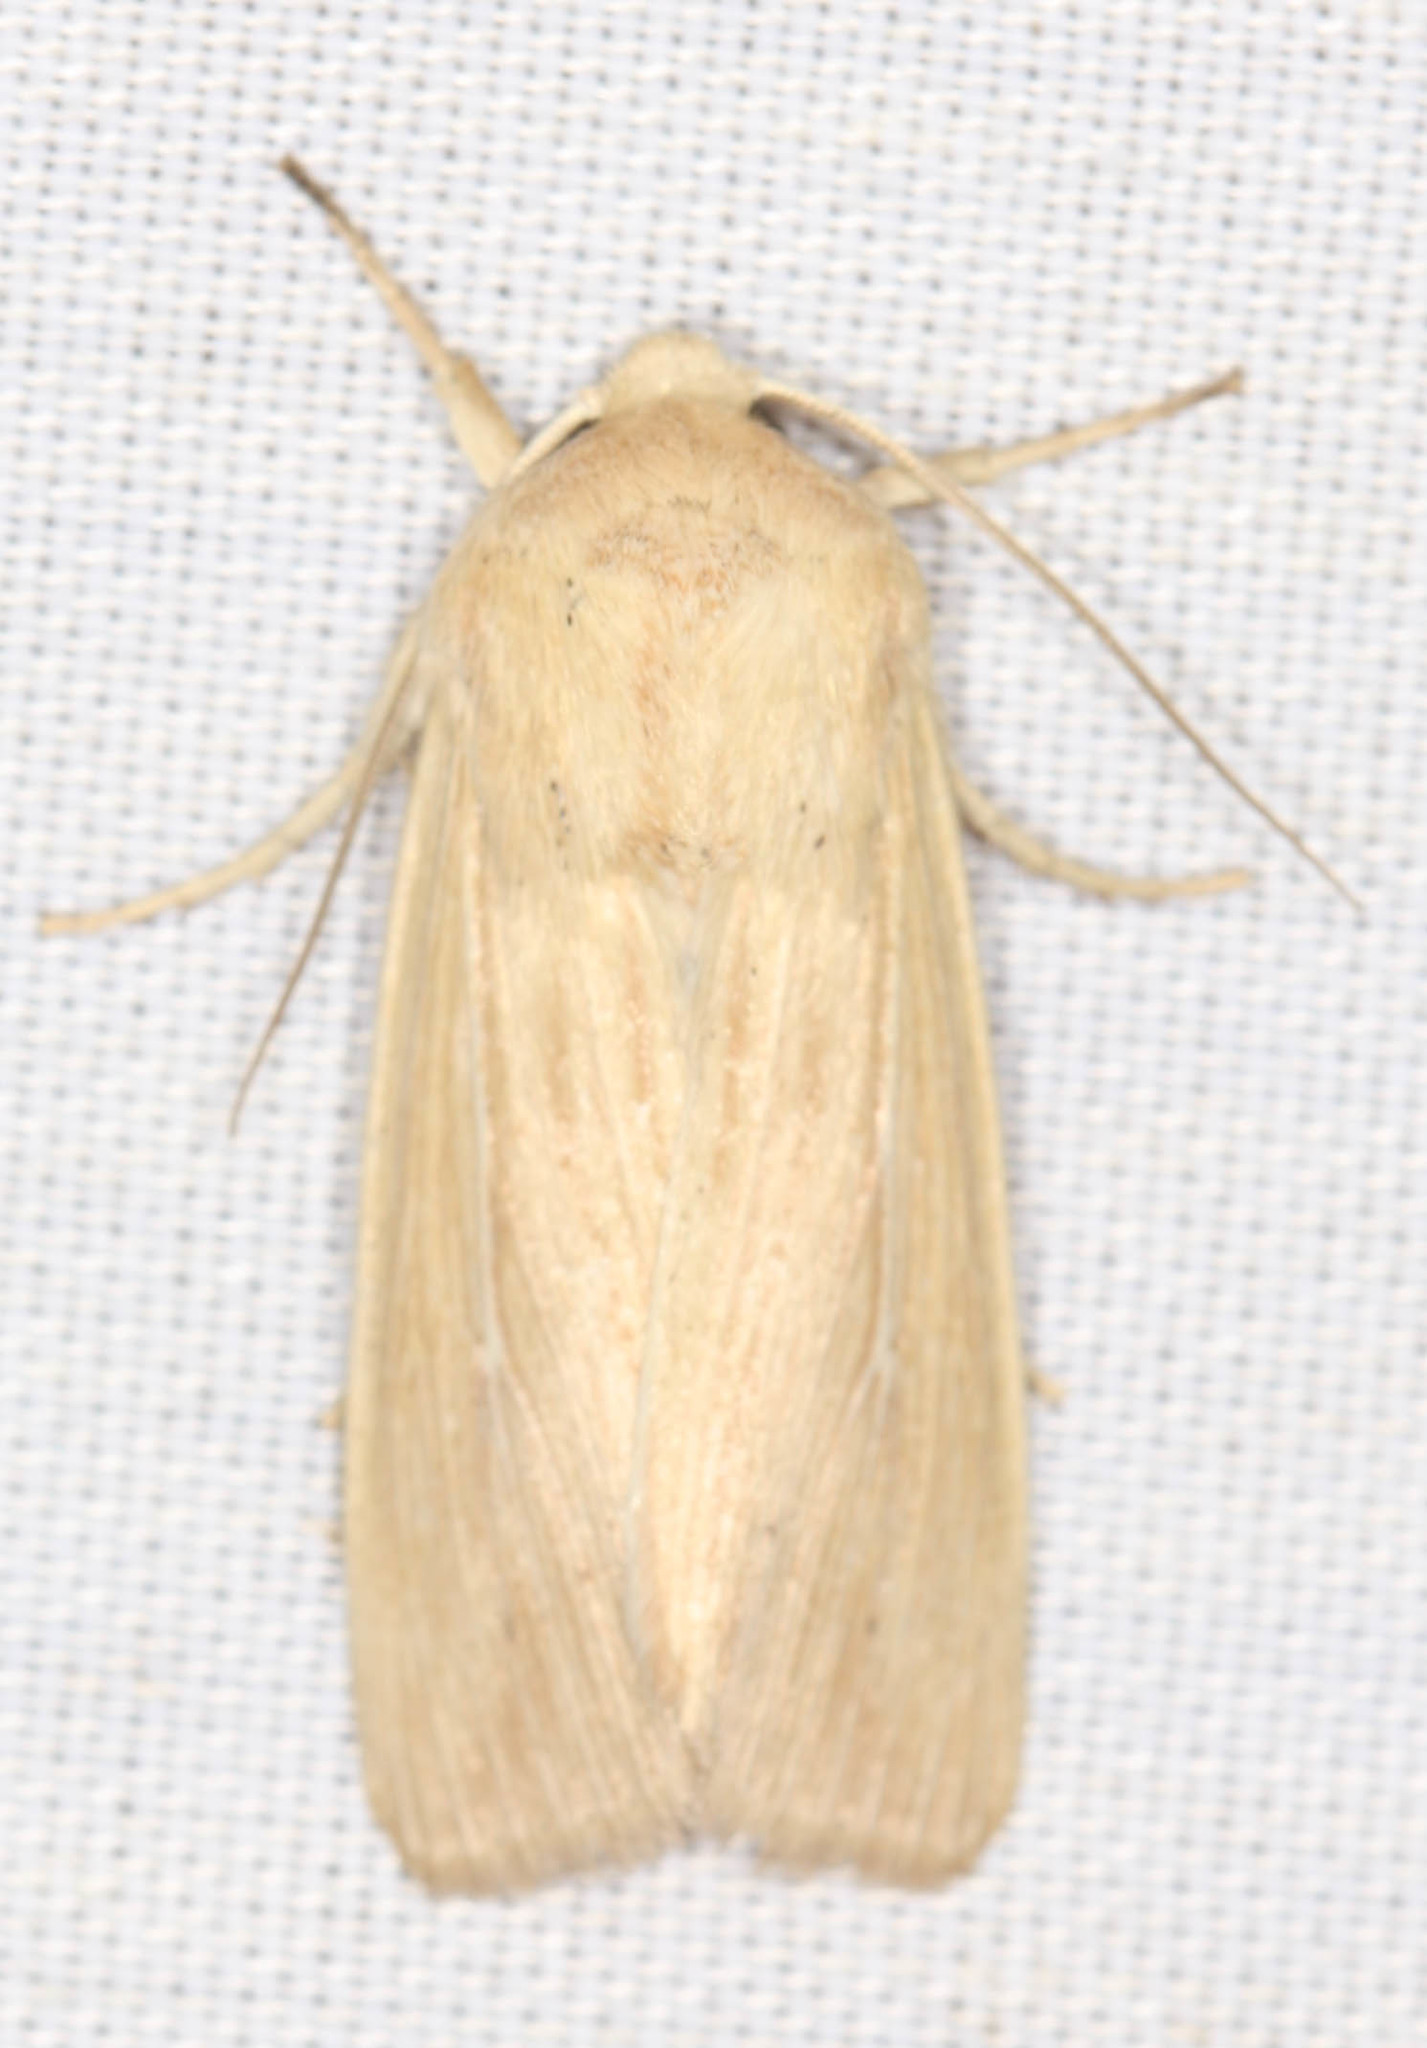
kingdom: Animalia
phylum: Arthropoda
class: Insecta
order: Lepidoptera
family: Noctuidae
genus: Leucania
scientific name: Leucania farcta
